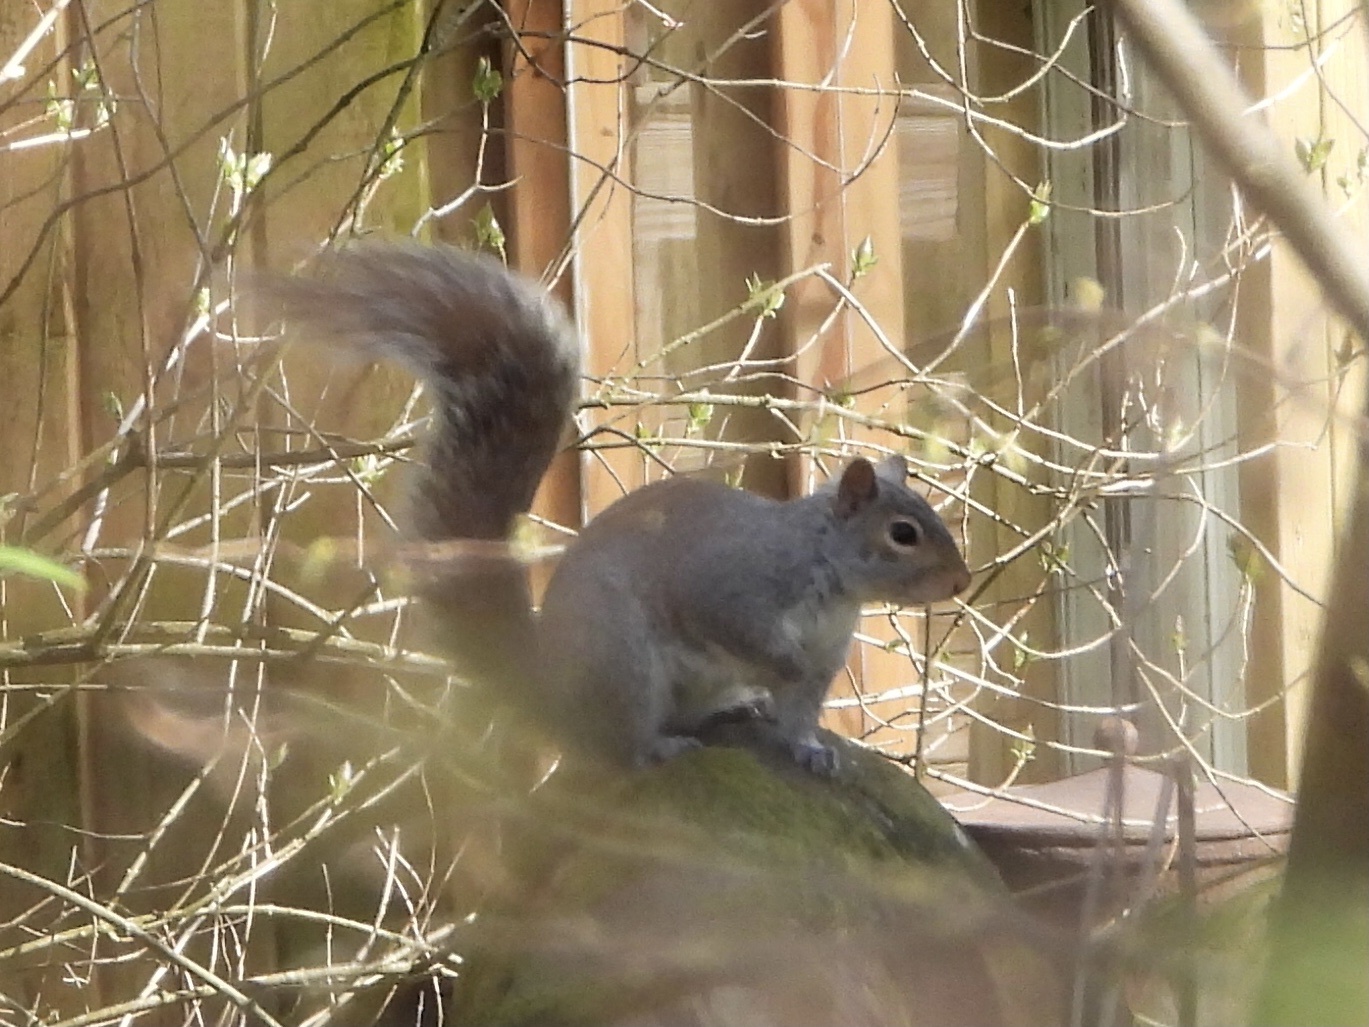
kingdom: Animalia
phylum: Chordata
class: Mammalia
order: Rodentia
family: Sciuridae
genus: Sciurus
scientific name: Sciurus carolinensis
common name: Eastern gray squirrel
